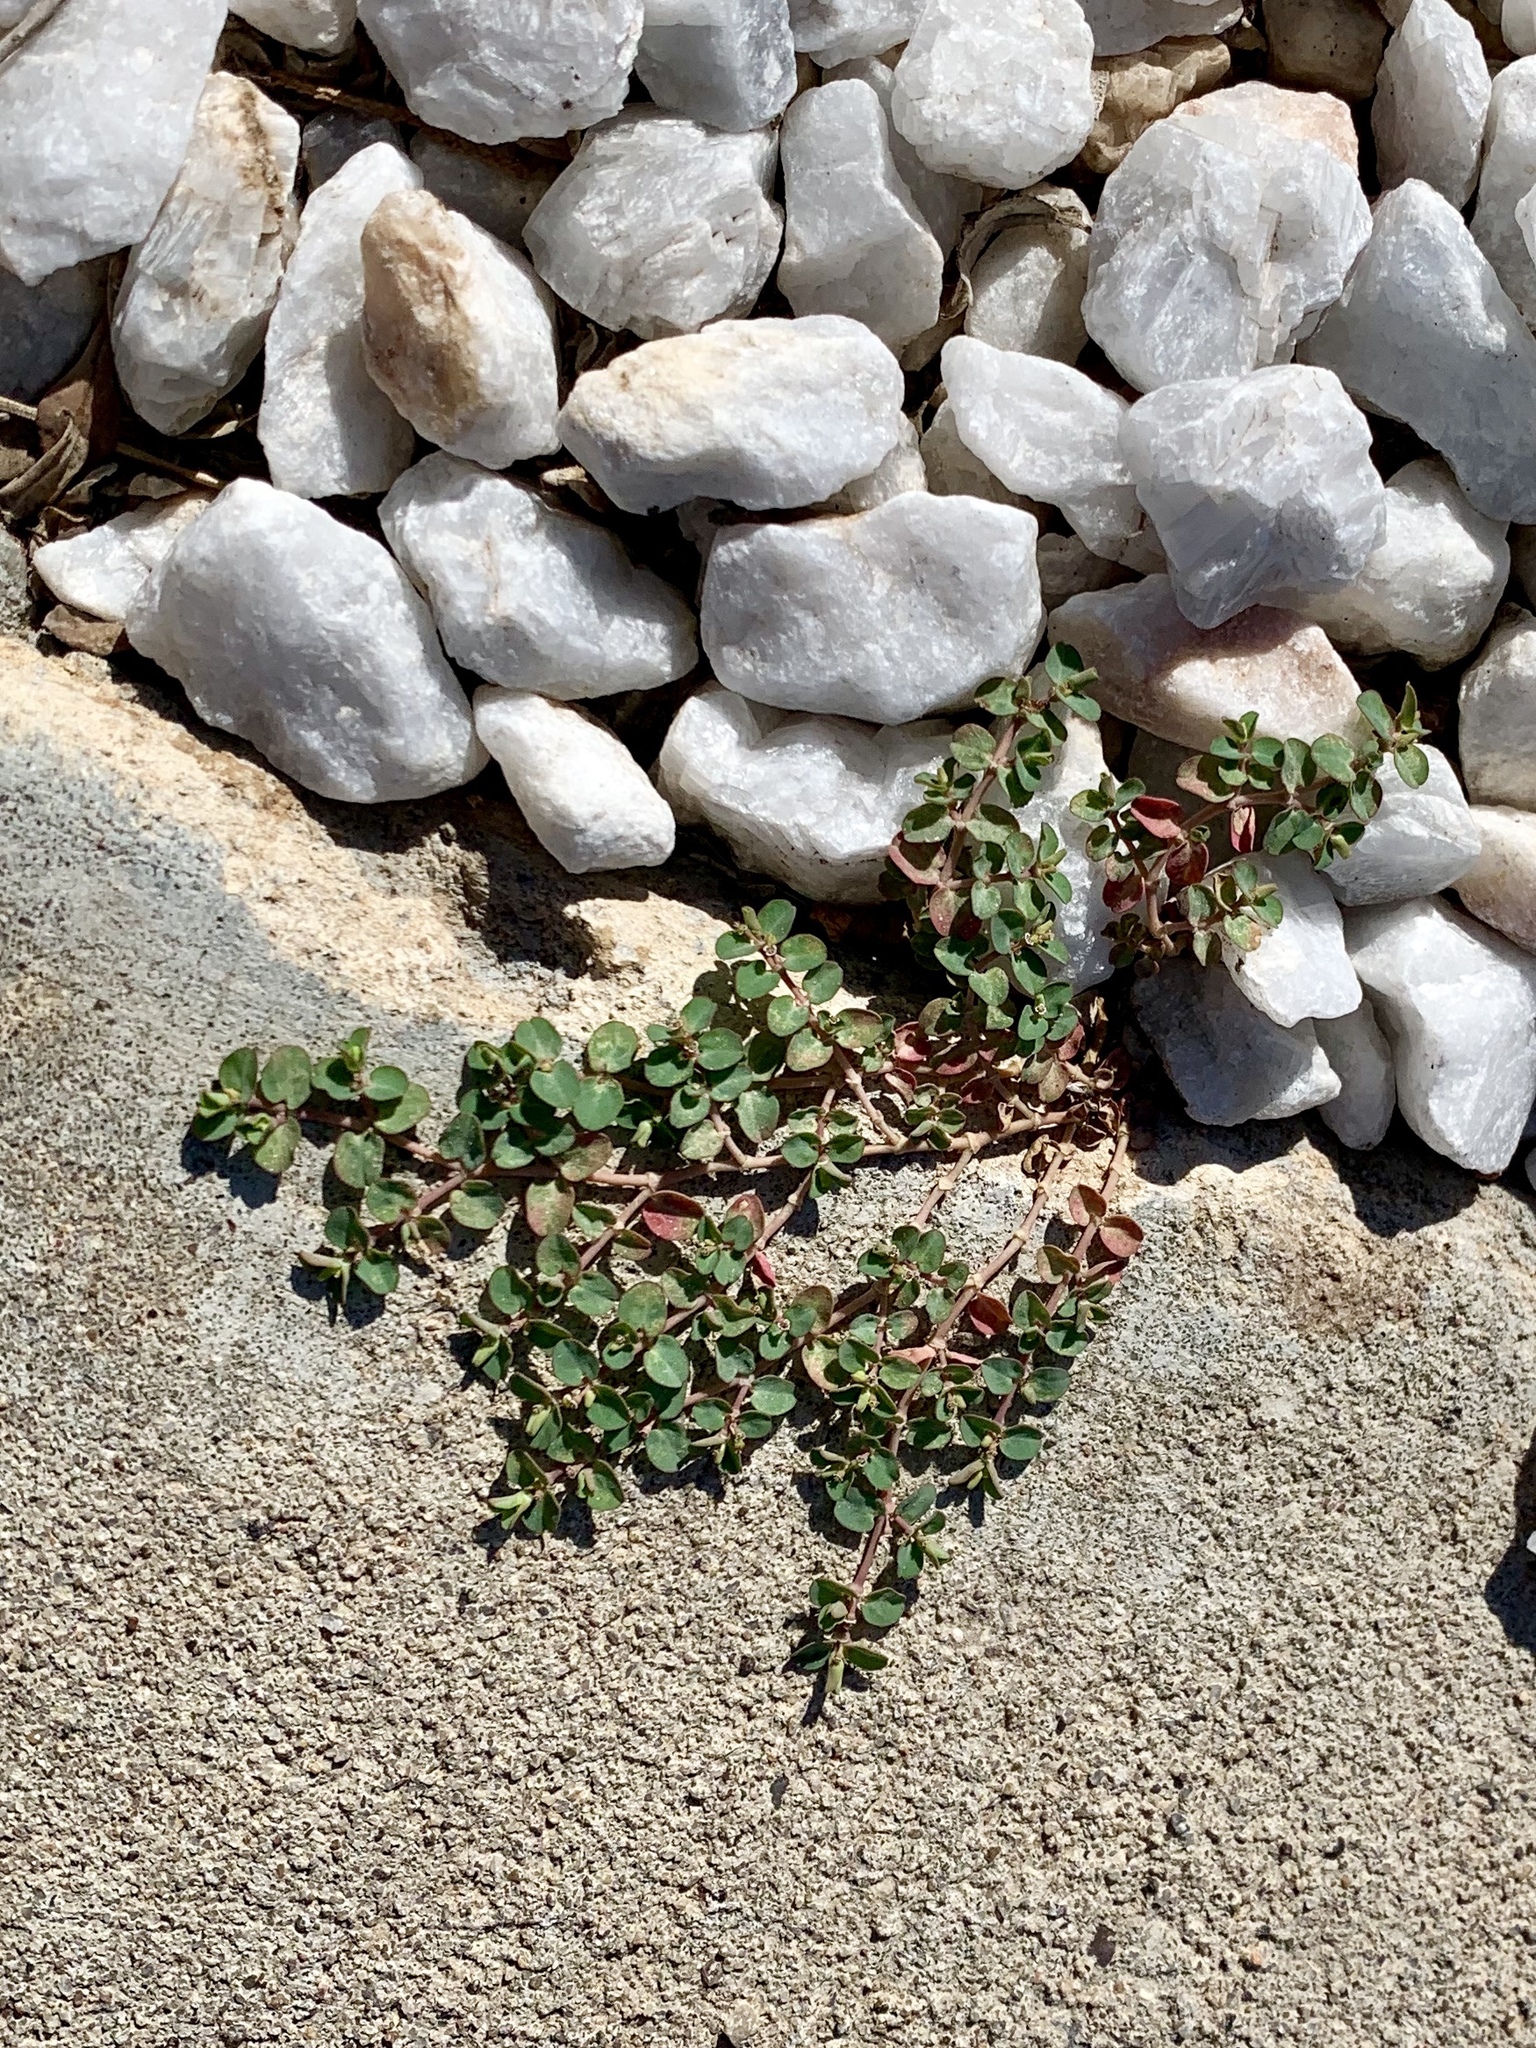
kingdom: Plantae
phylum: Tracheophyta
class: Magnoliopsida
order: Malpighiales
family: Euphorbiaceae
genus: Euphorbia
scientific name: Euphorbia serpens
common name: Matted sandmat
